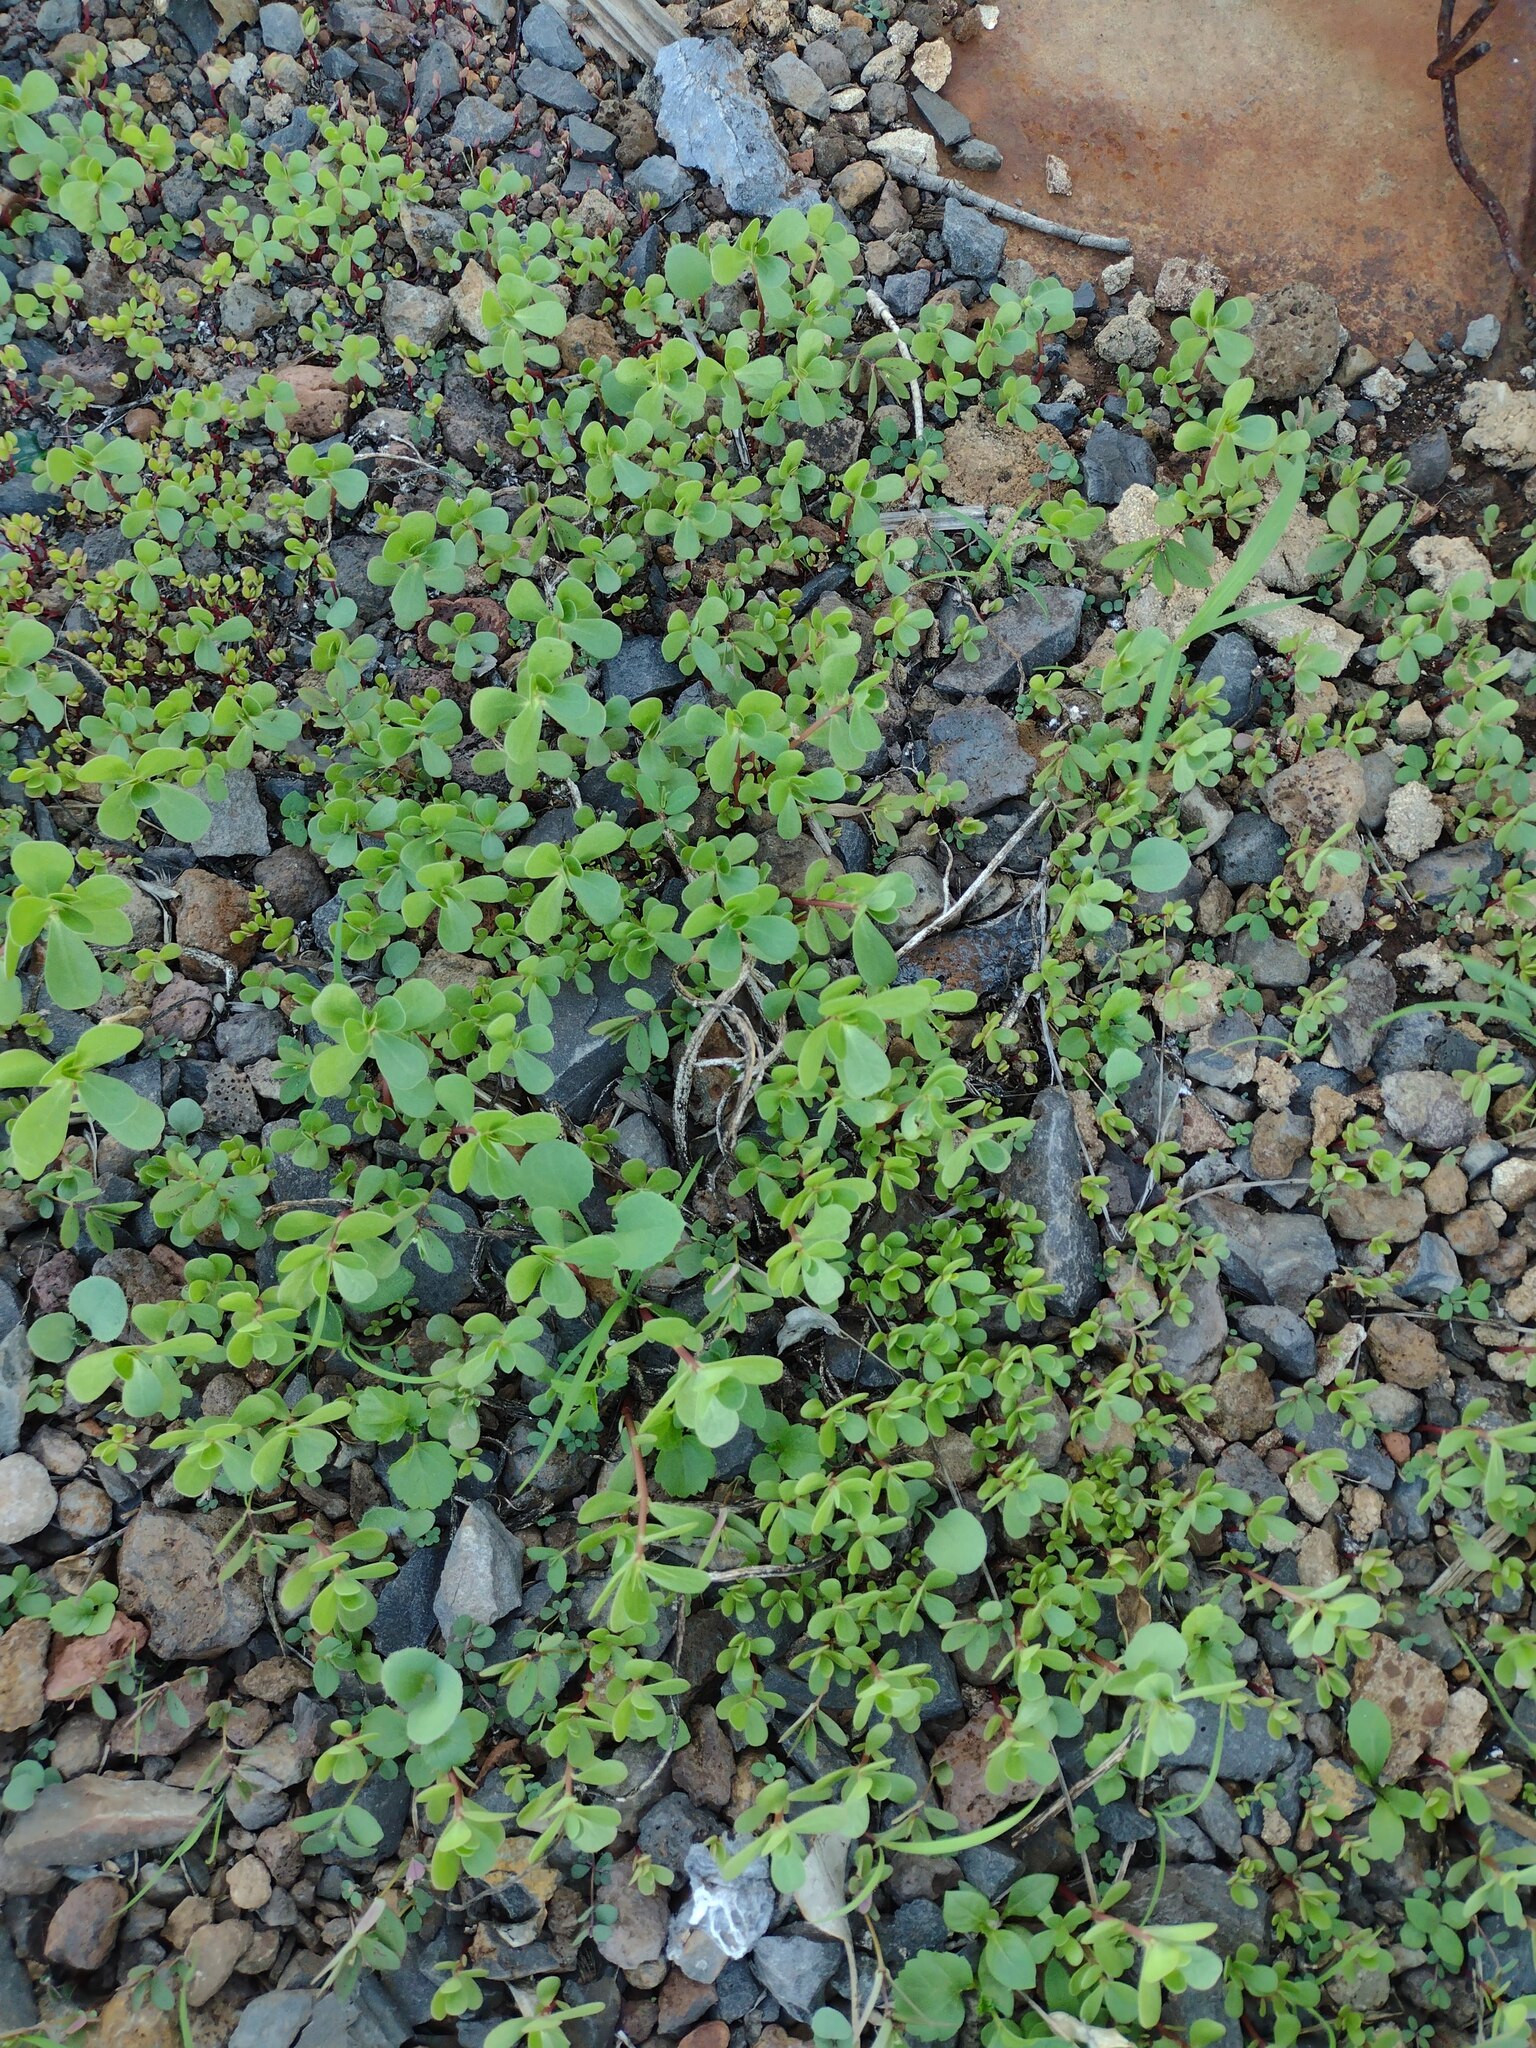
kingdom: Plantae
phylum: Tracheophyta
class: Magnoliopsida
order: Caryophyllales
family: Portulacaceae
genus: Portulaca
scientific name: Portulaca oleracea
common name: Common purslane
